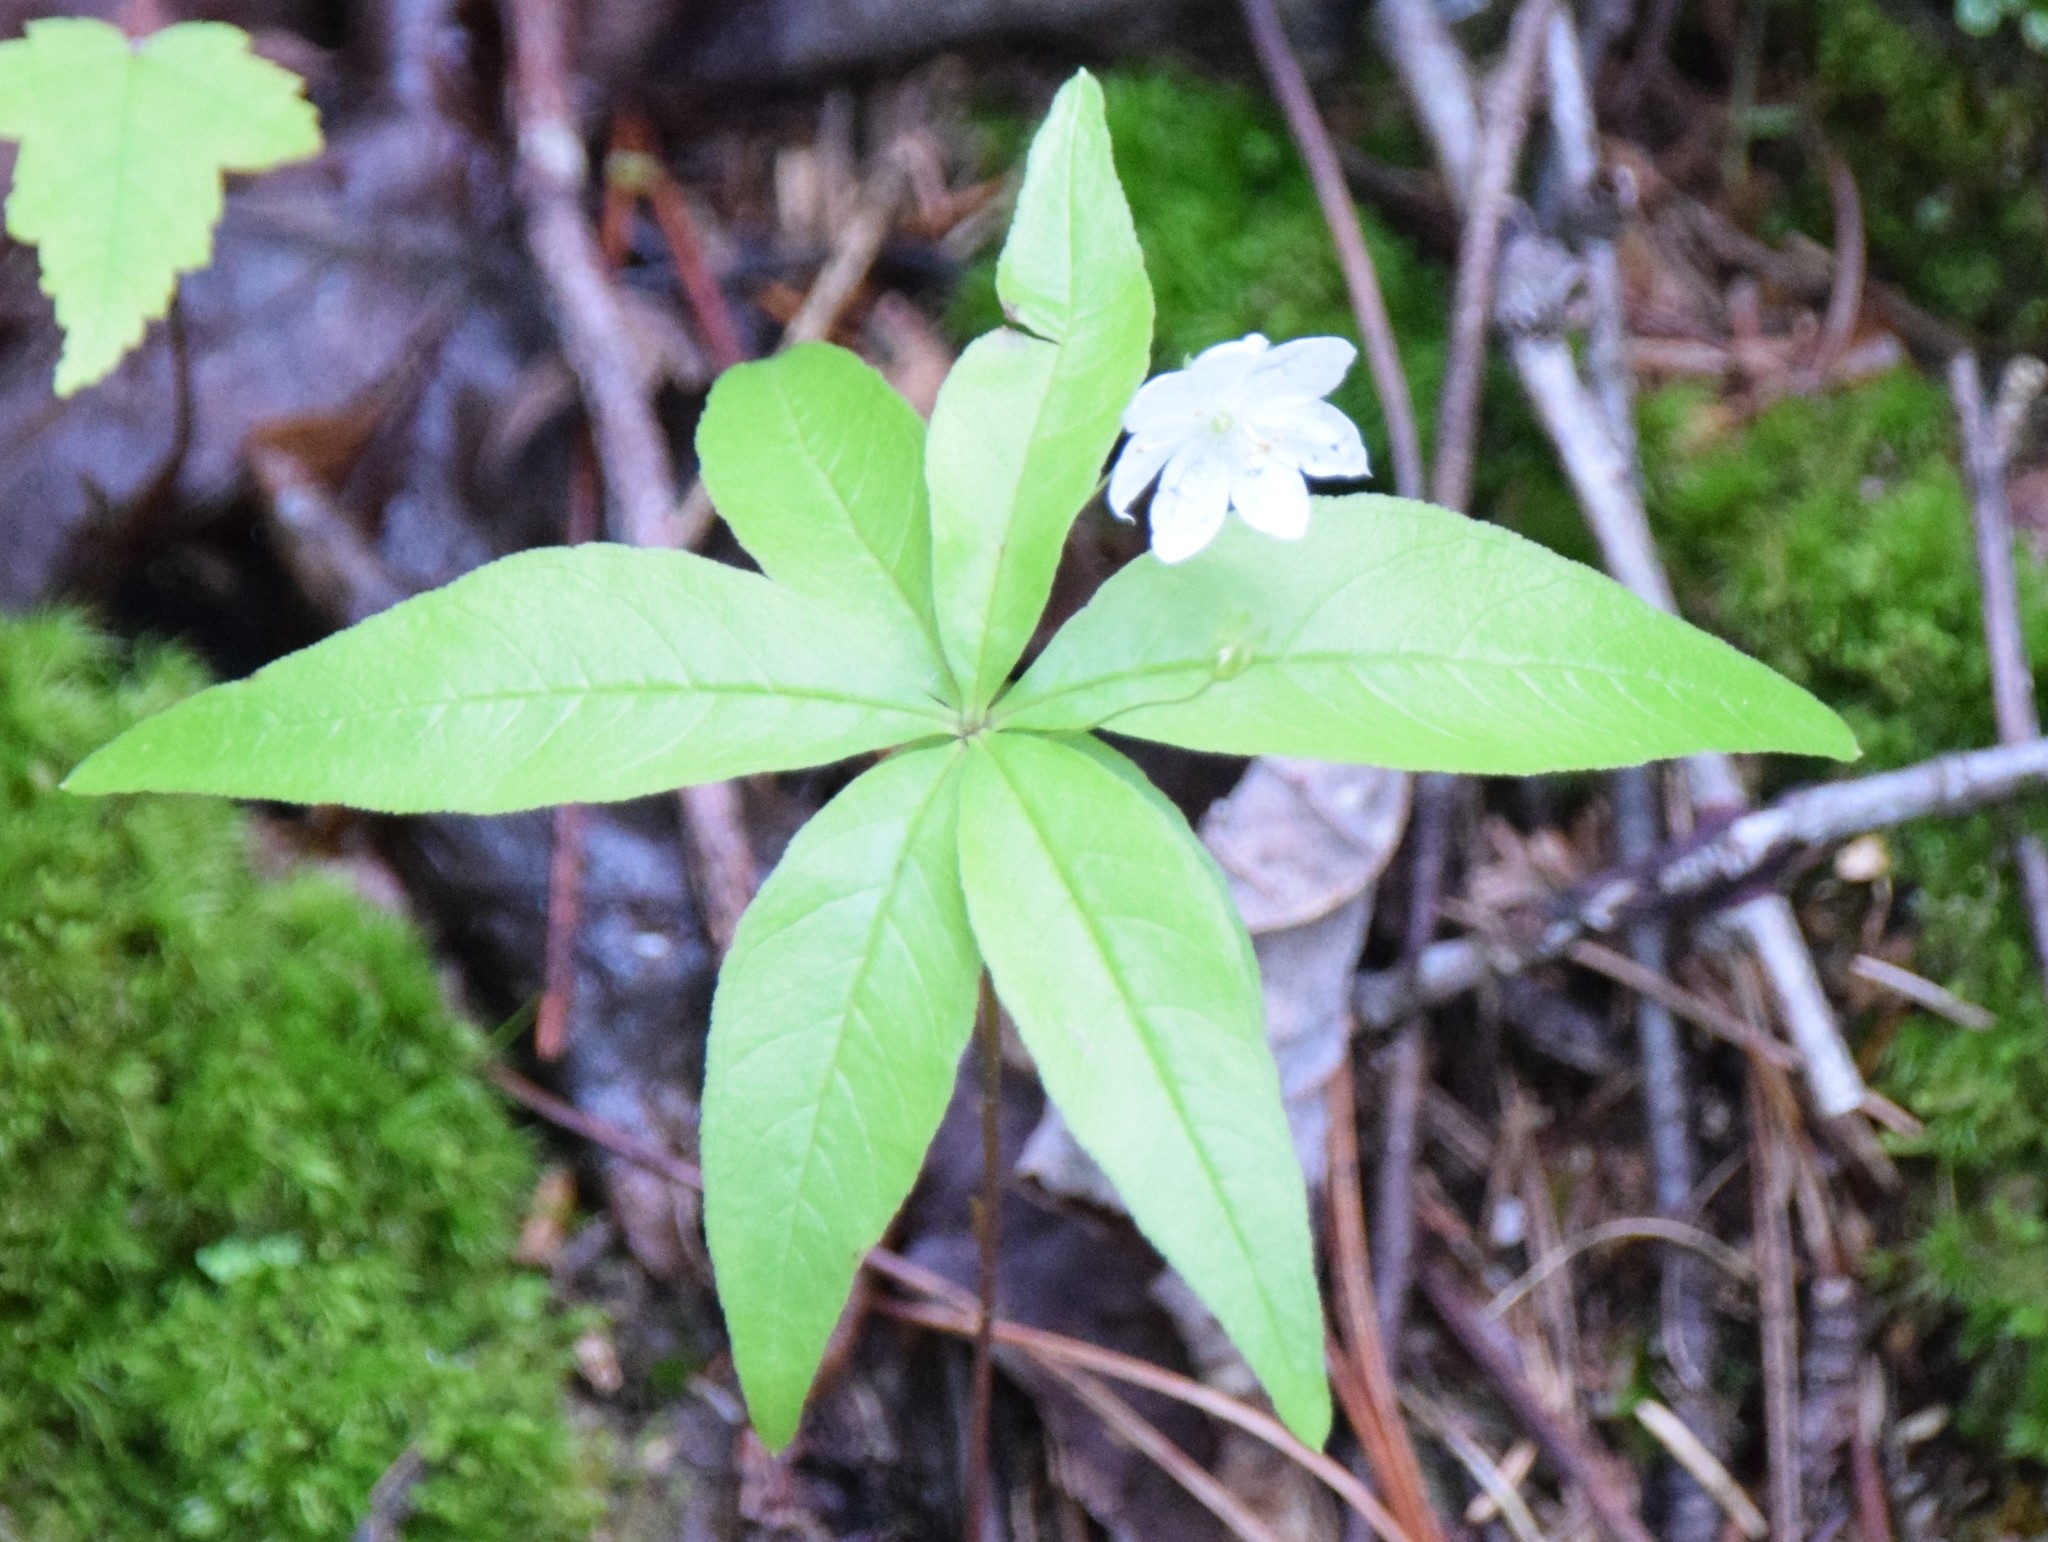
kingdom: Plantae
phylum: Tracheophyta
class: Magnoliopsida
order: Ericales
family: Primulaceae
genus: Lysimachia
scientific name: Lysimachia borealis
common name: American starflower
